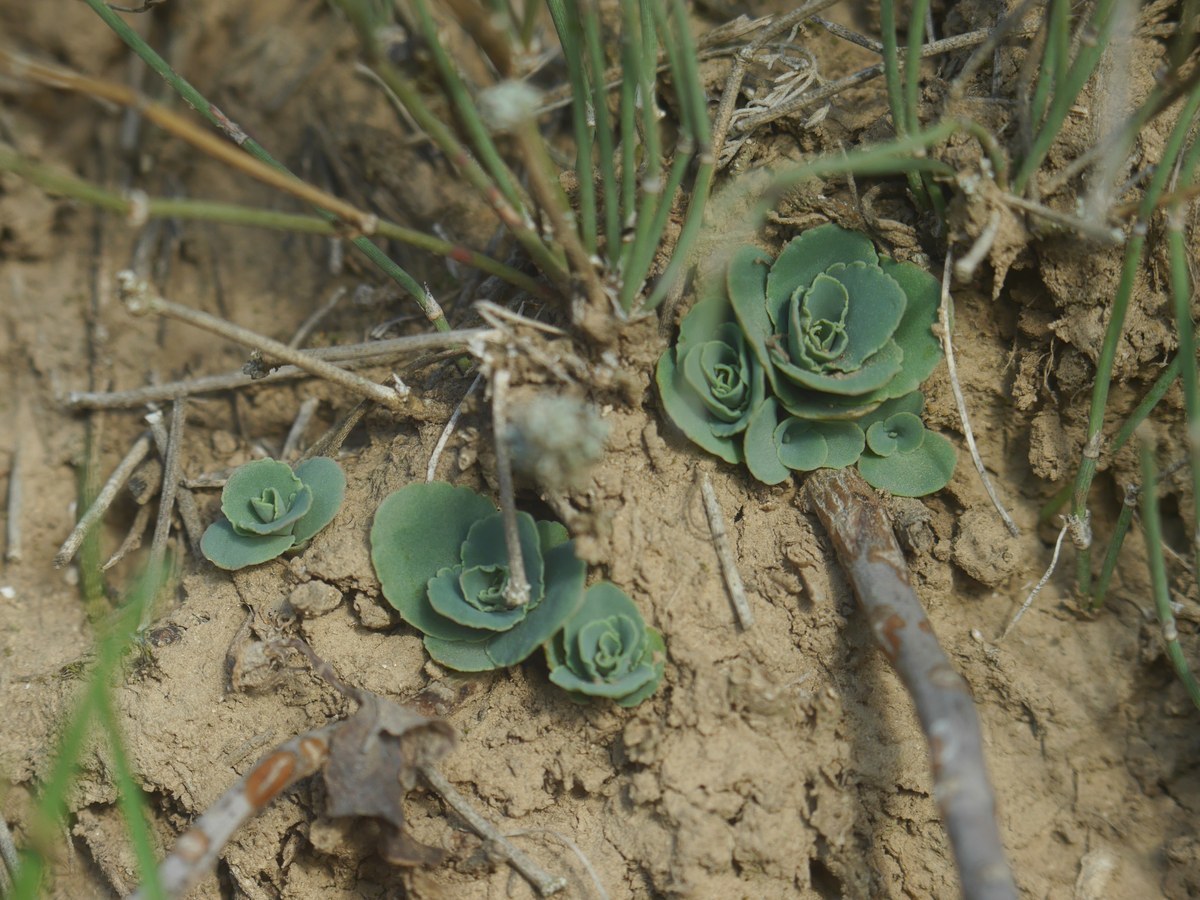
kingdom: Plantae
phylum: Tracheophyta
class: Magnoliopsida
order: Saxifragales
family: Crassulaceae
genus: Hylotelephium
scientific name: Hylotelephium maximum
